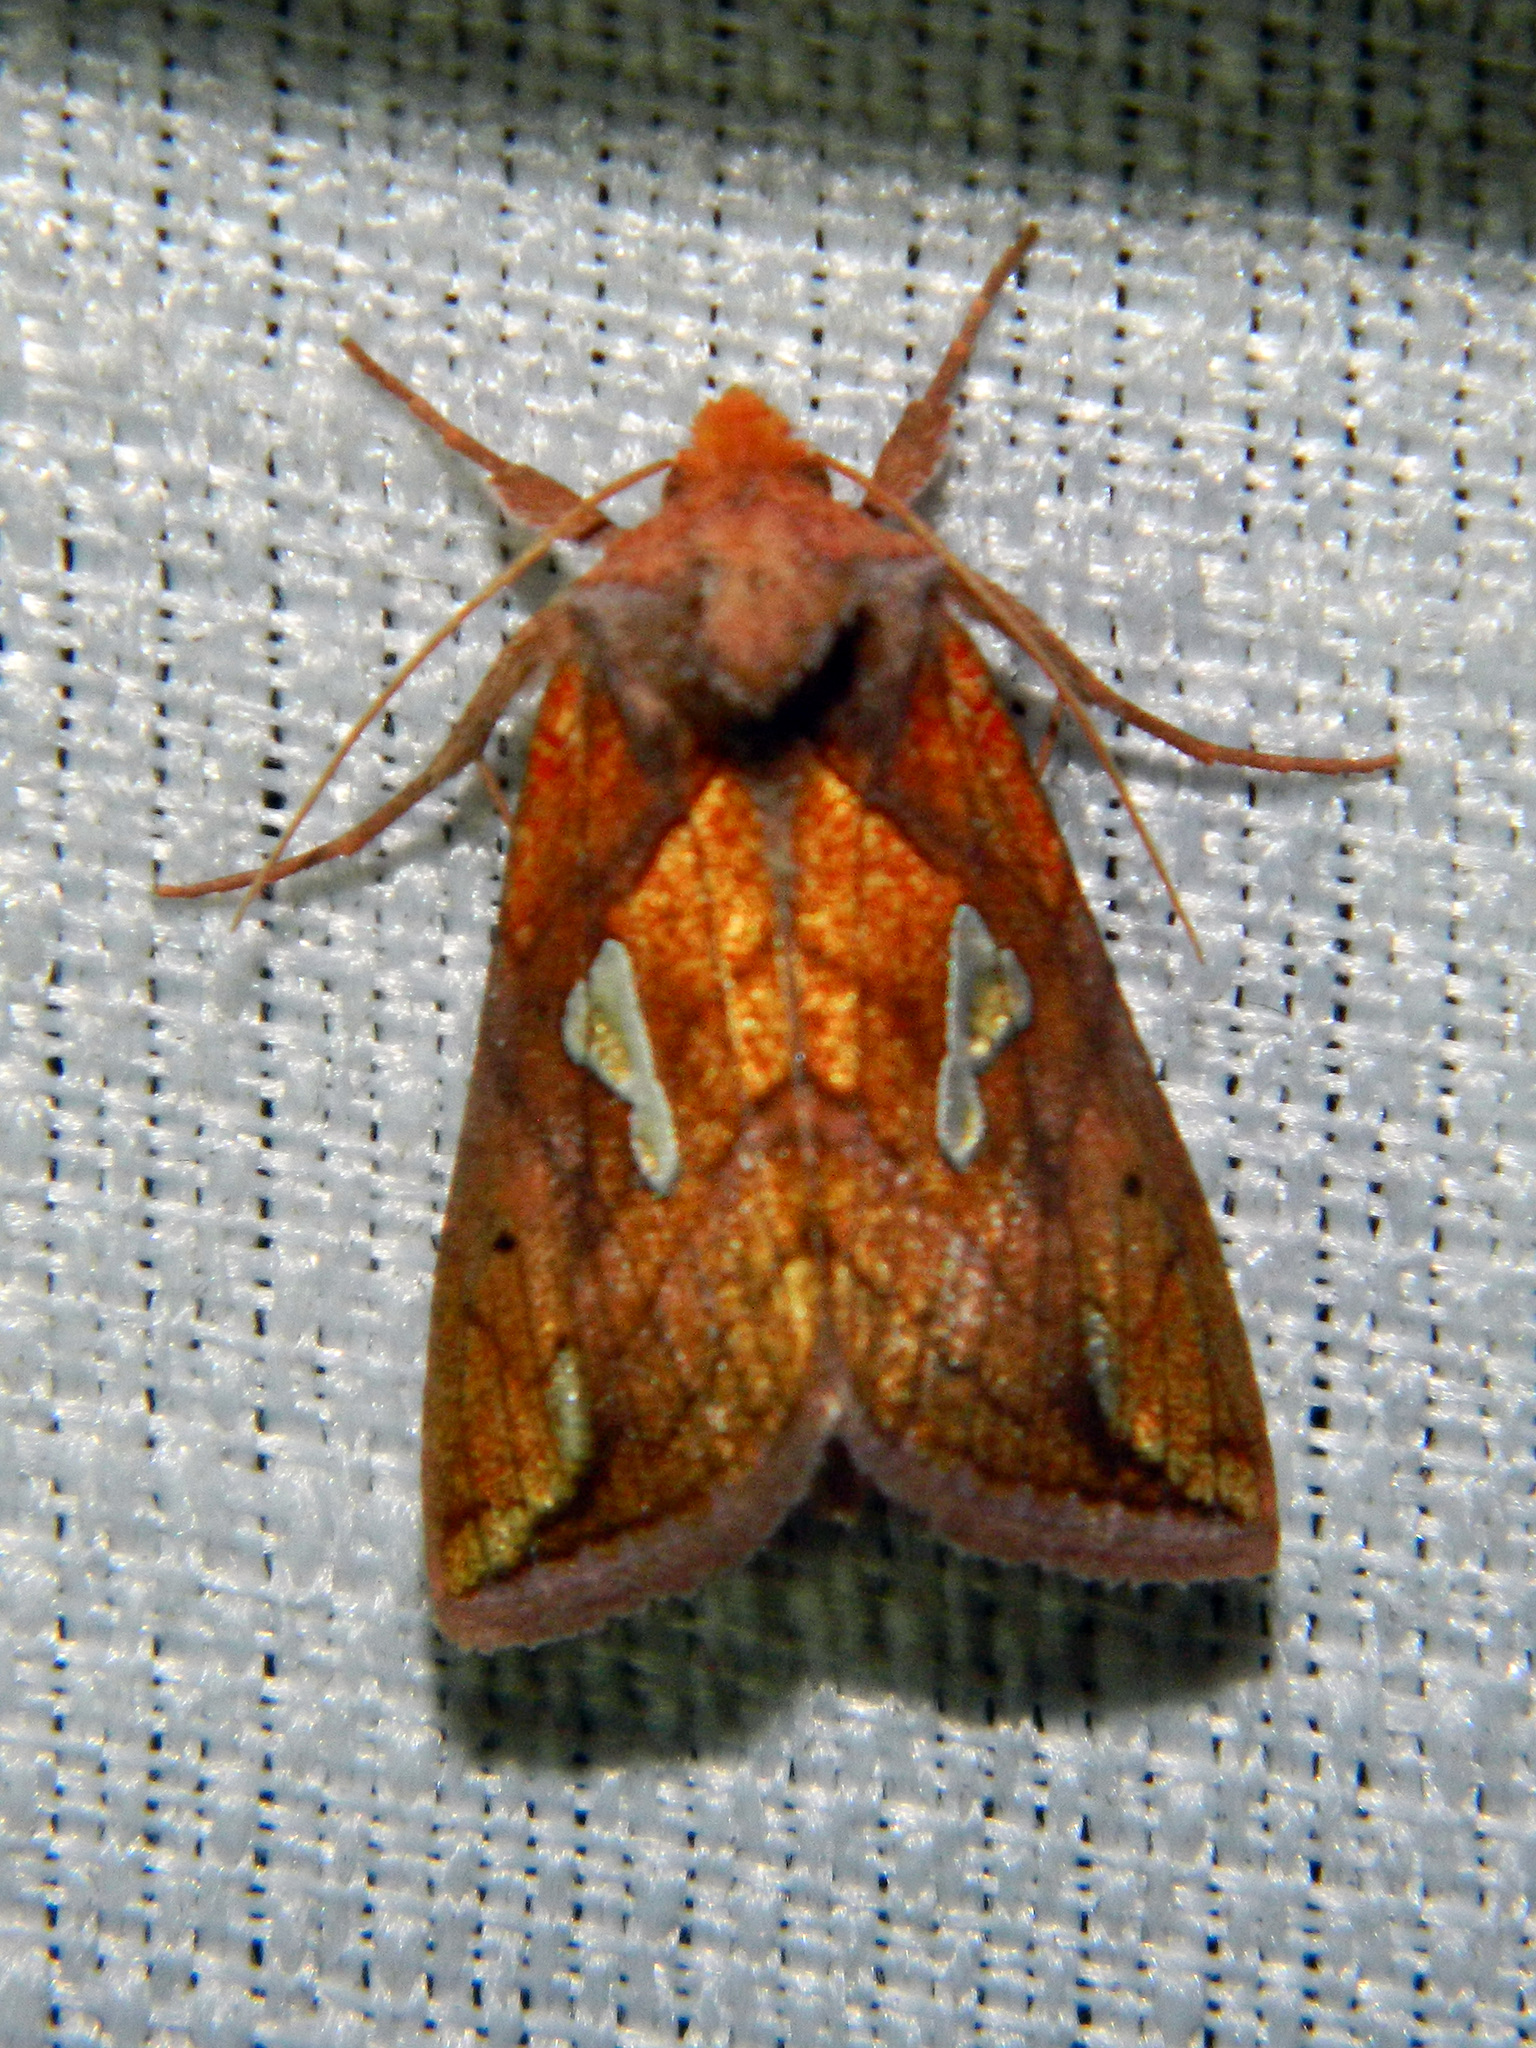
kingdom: Animalia
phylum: Arthropoda
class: Insecta
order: Lepidoptera
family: Noctuidae
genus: Plusia
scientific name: Plusia putnami
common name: Lempke's gold spot
